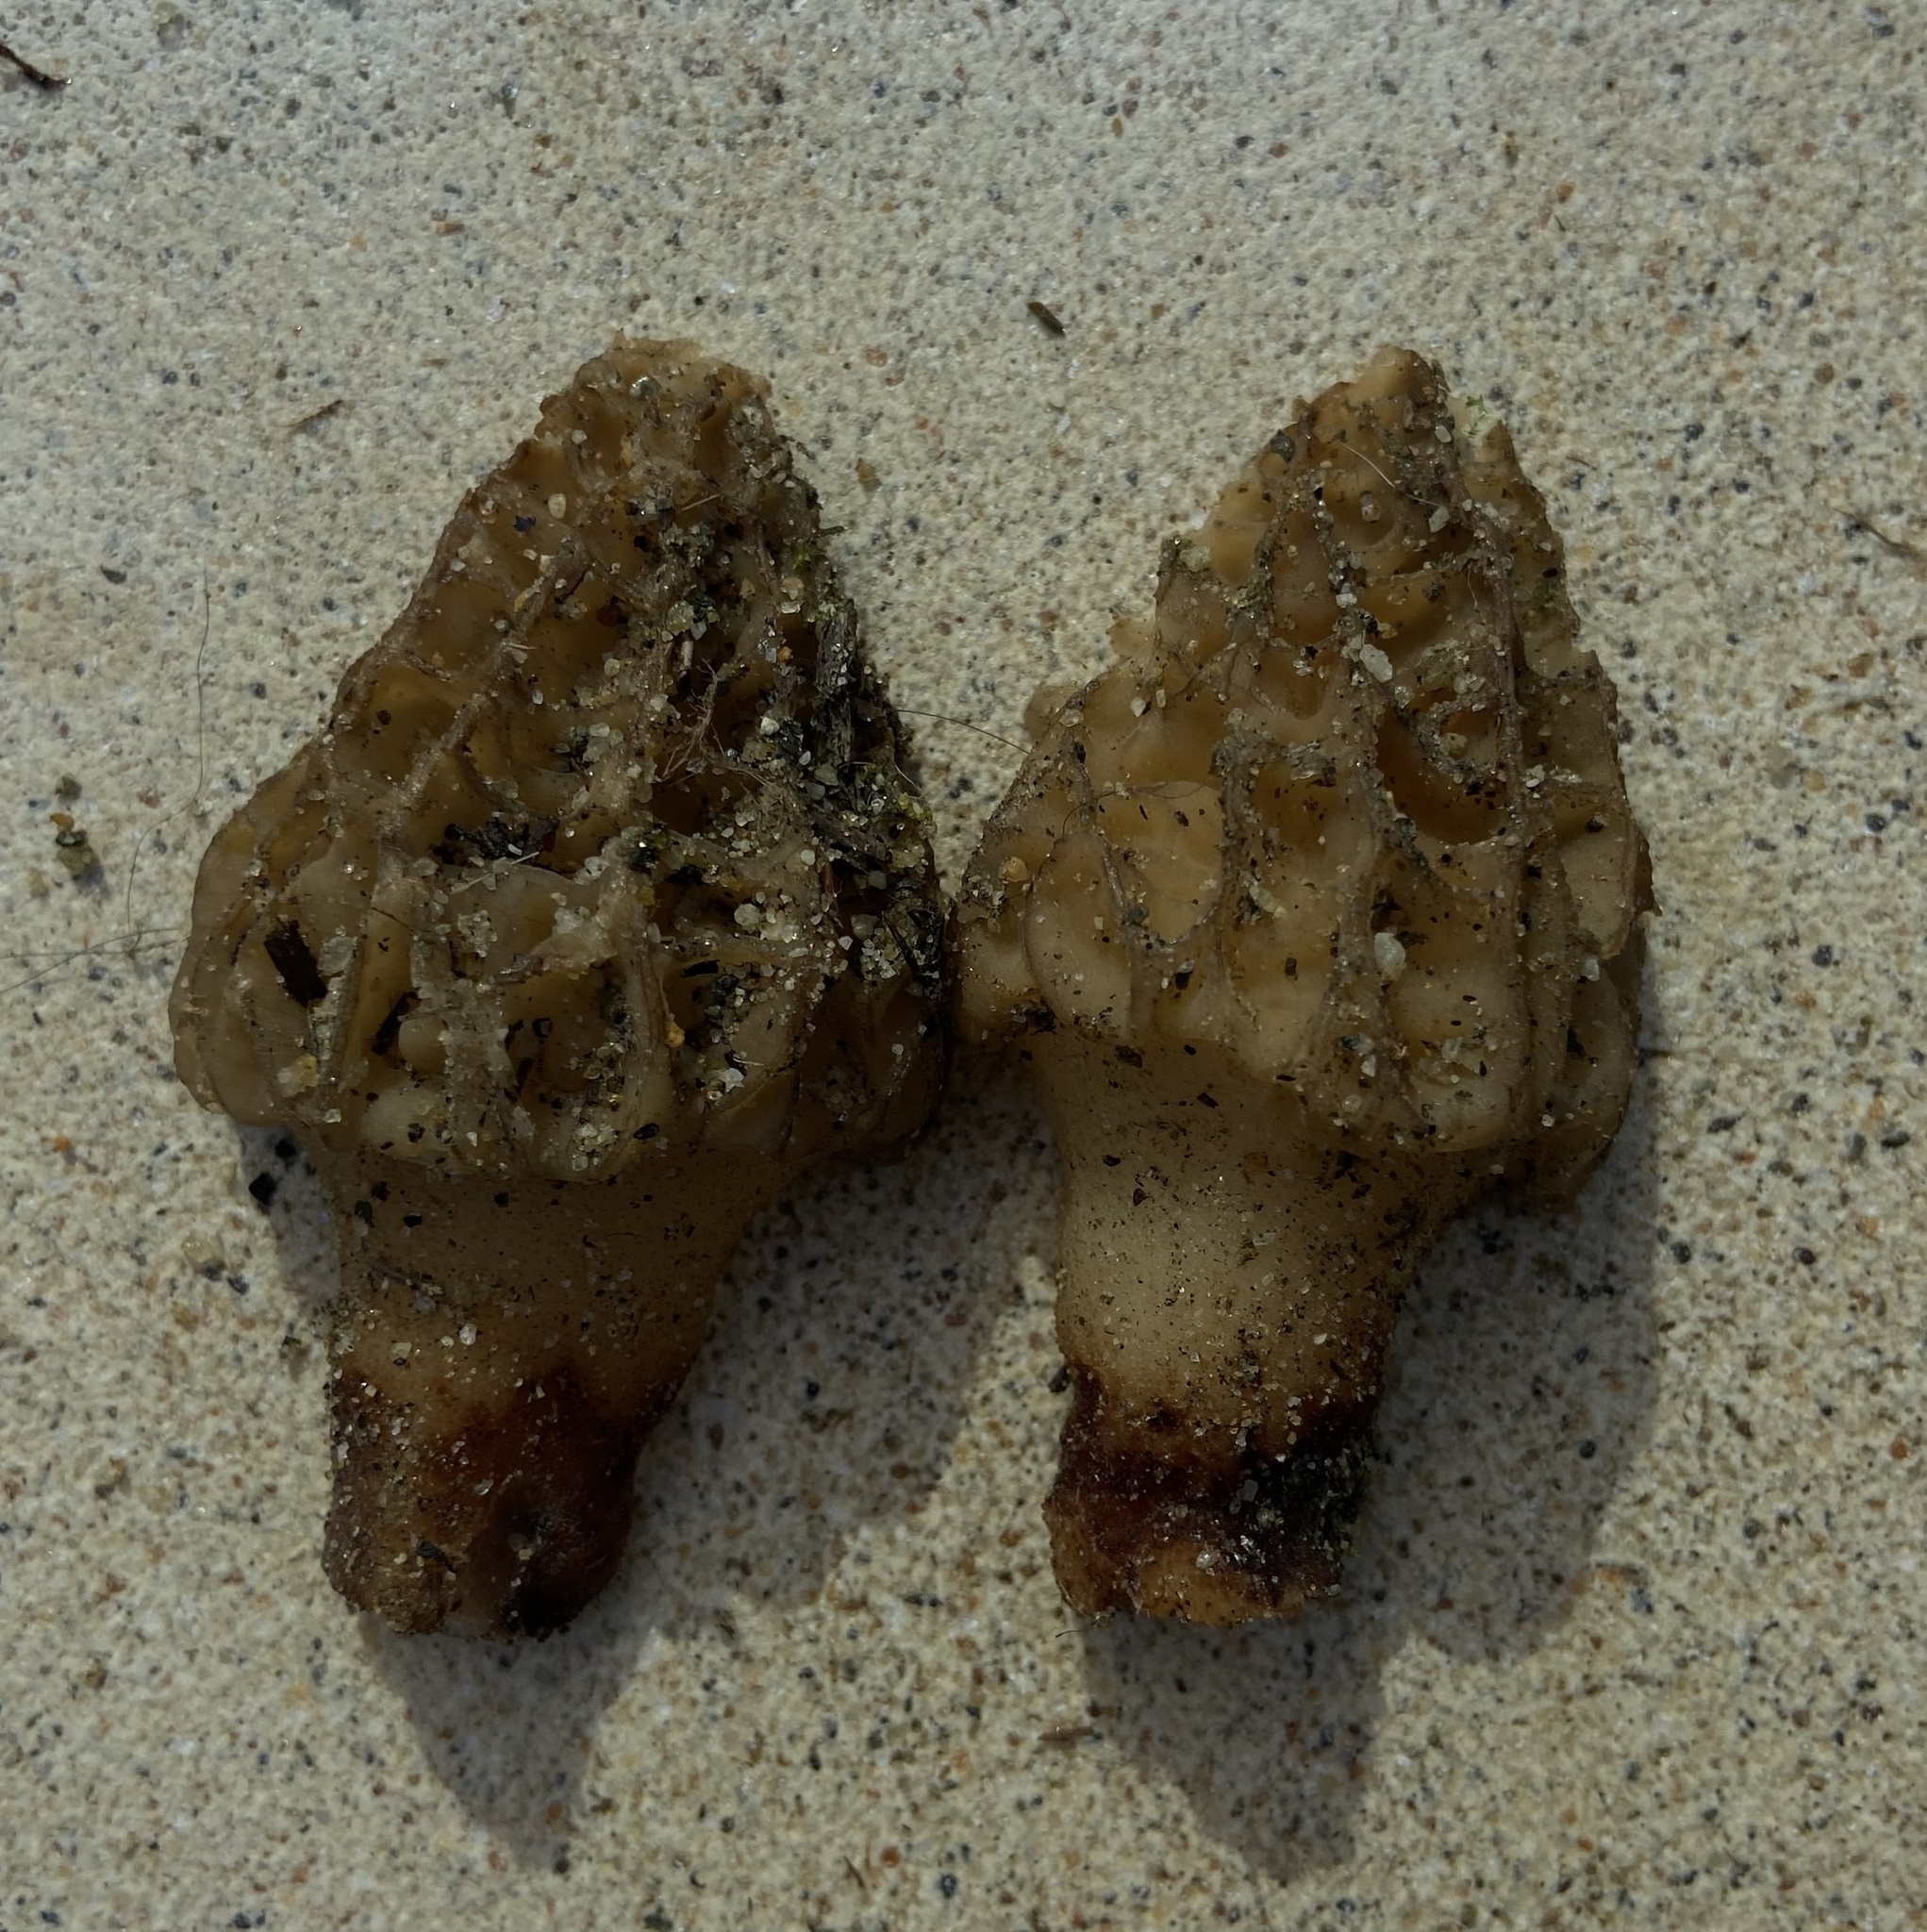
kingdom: Fungi
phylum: Ascomycota
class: Pezizomycetes
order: Pezizales
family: Morchellaceae
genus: Morchella
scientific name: Morchella rufobrunnea
